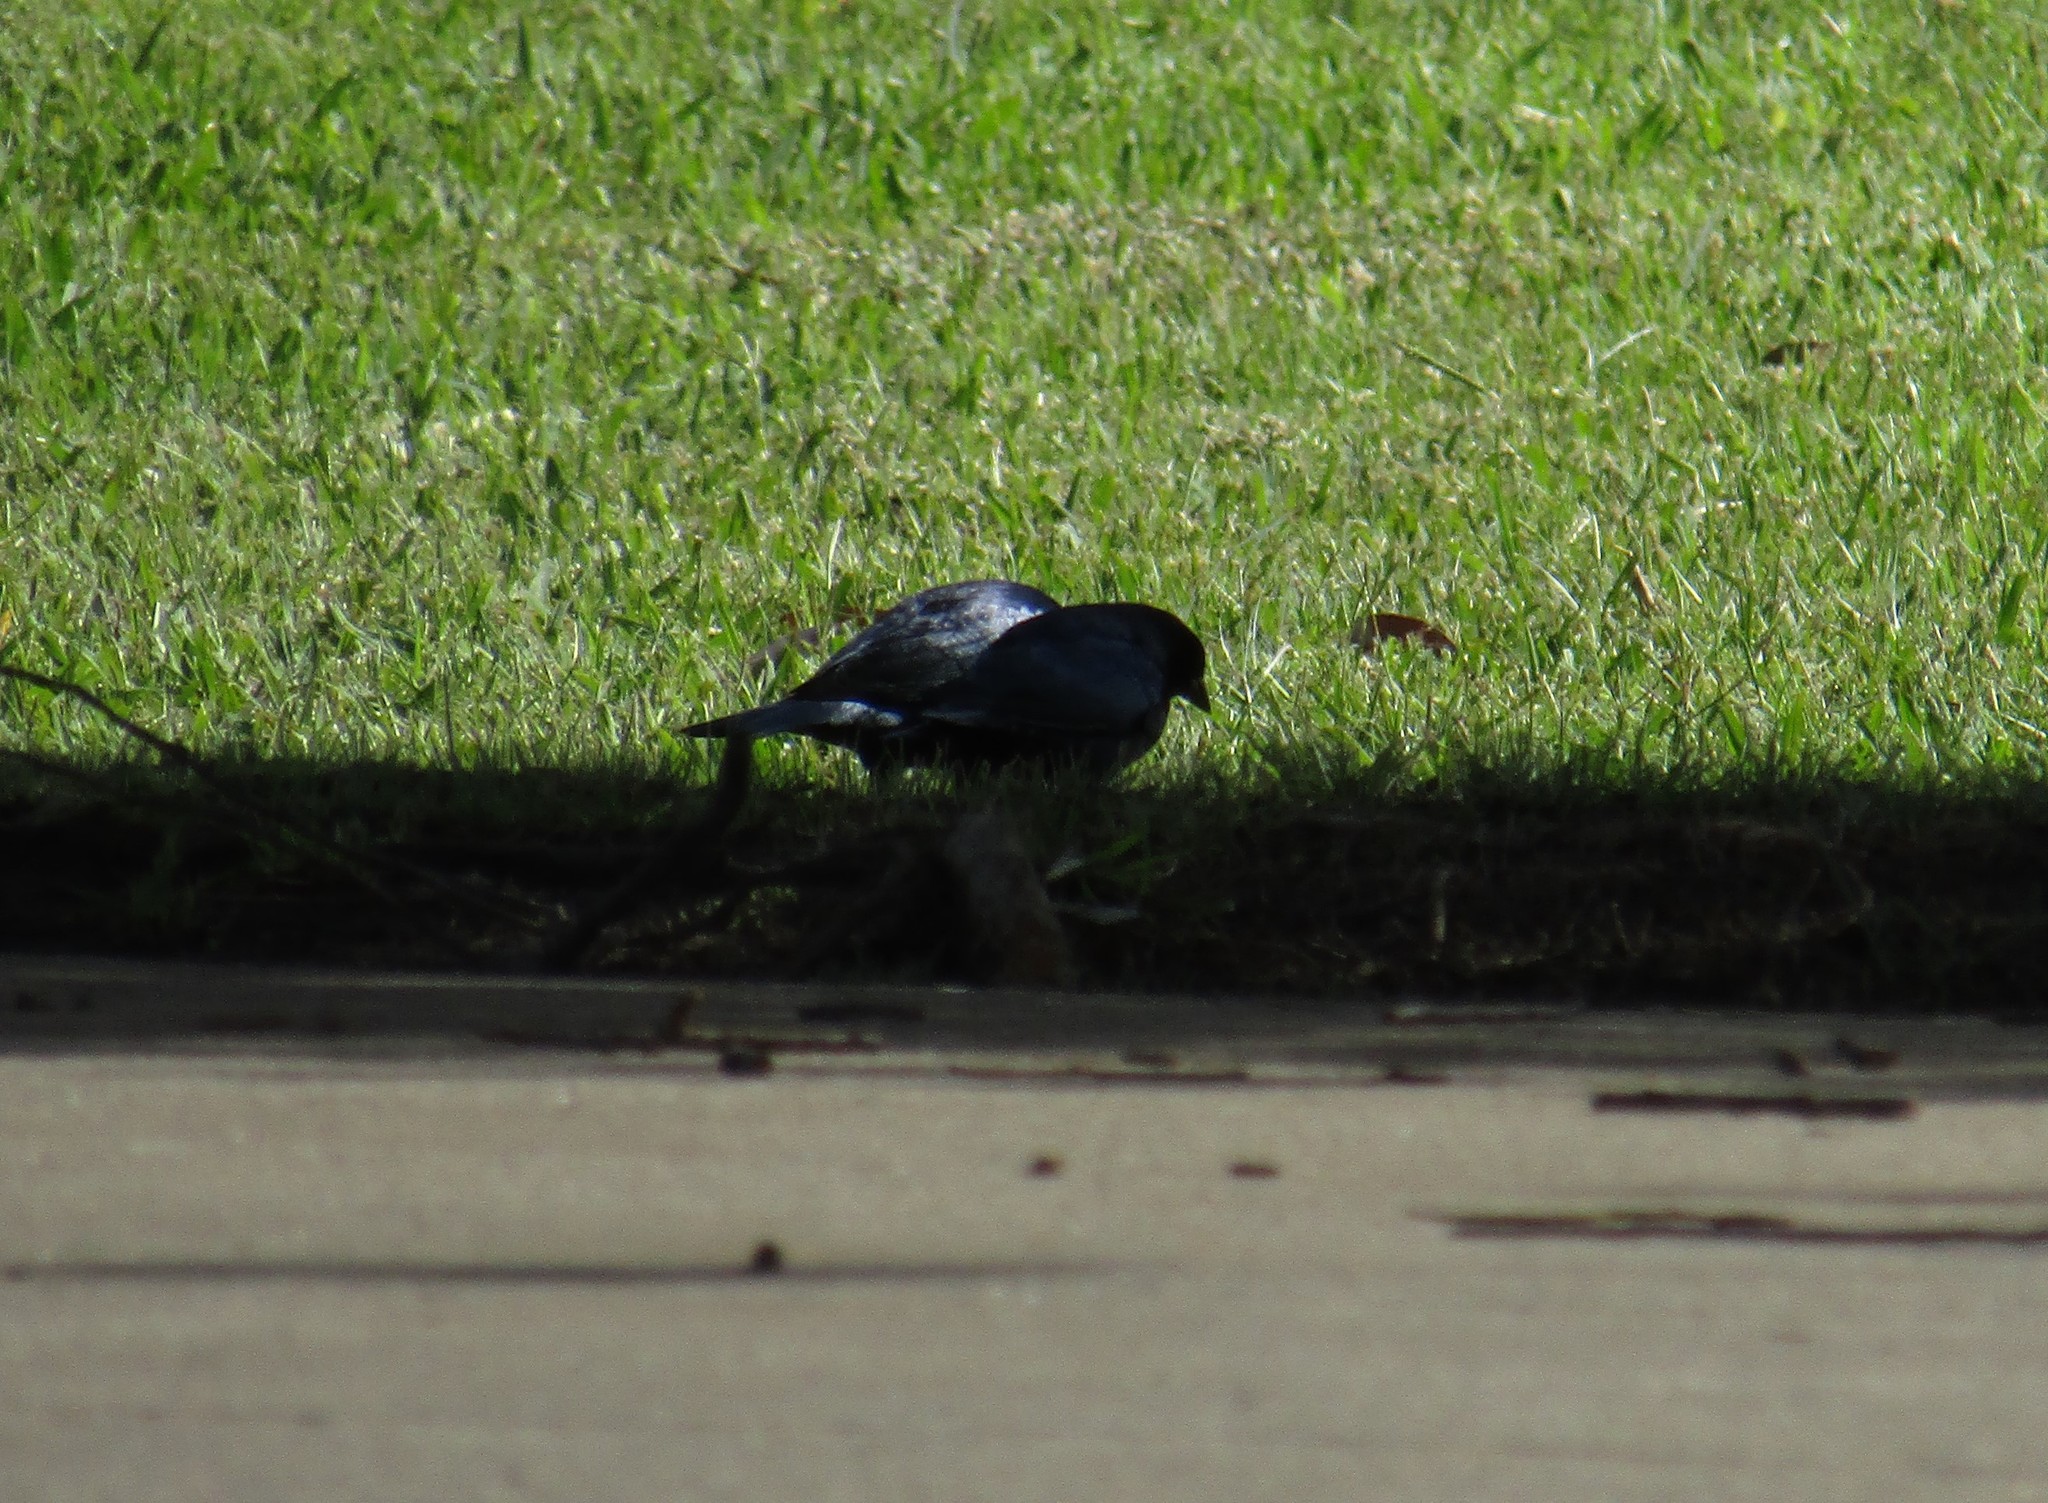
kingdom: Animalia
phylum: Chordata
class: Aves
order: Passeriformes
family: Icteridae
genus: Molothrus
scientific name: Molothrus bonariensis
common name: Shiny cowbird
